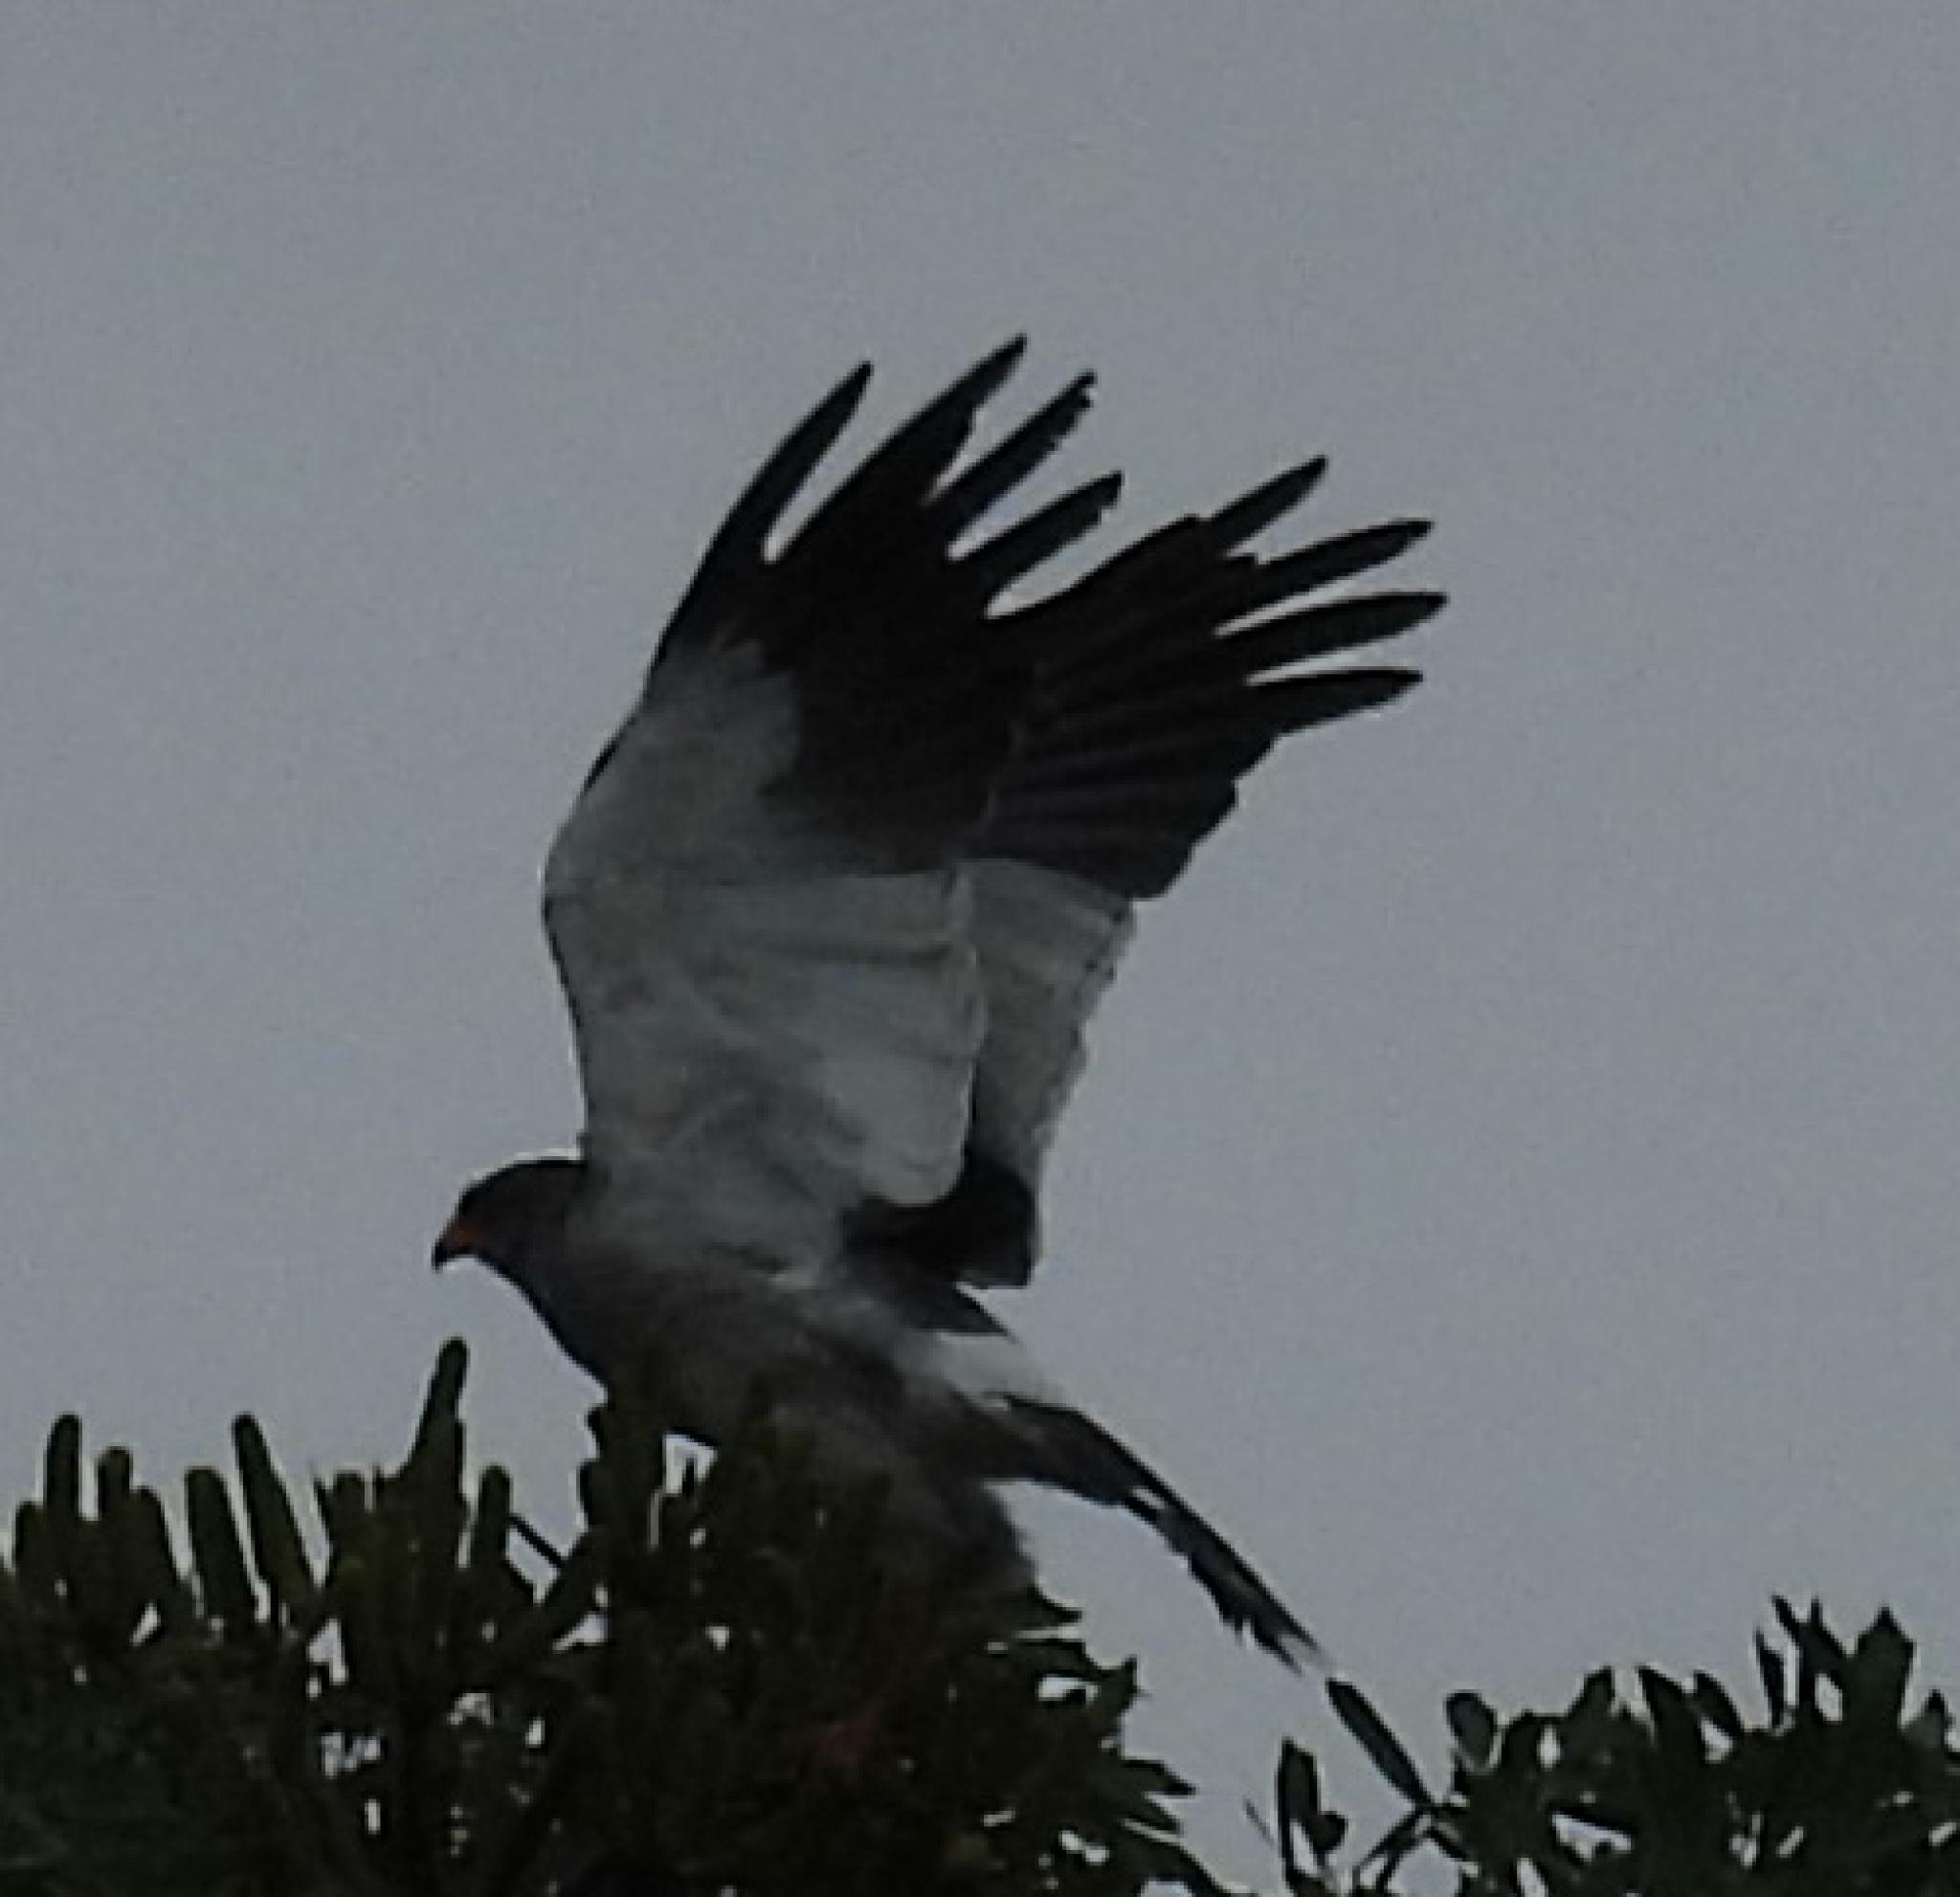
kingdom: Animalia
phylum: Chordata
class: Aves
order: Accipitriformes
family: Accipitridae
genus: Melierax
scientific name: Melierax canorus
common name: Pale chanting-goshawk
